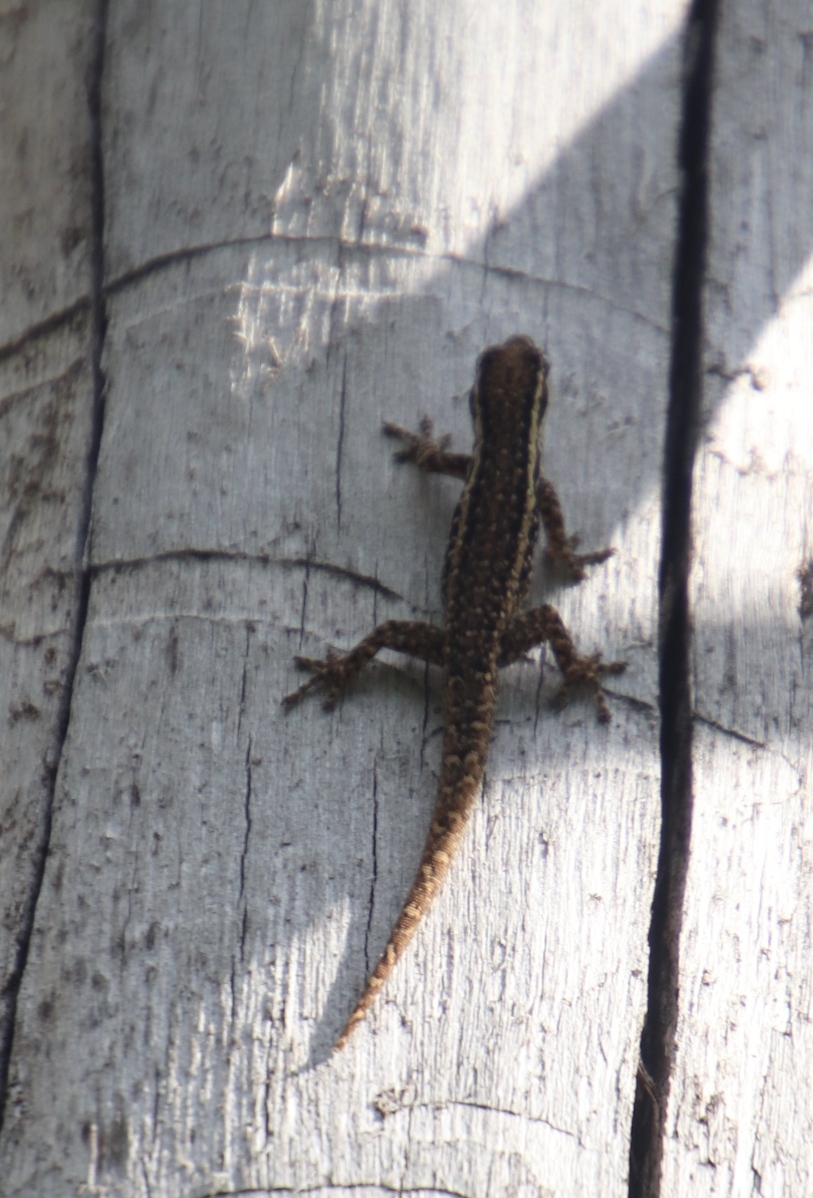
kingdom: Animalia
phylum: Chordata
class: Squamata
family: Gekkonidae
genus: Lygodactylus
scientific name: Lygodactylus capensis
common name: Cape dwarf gecko
